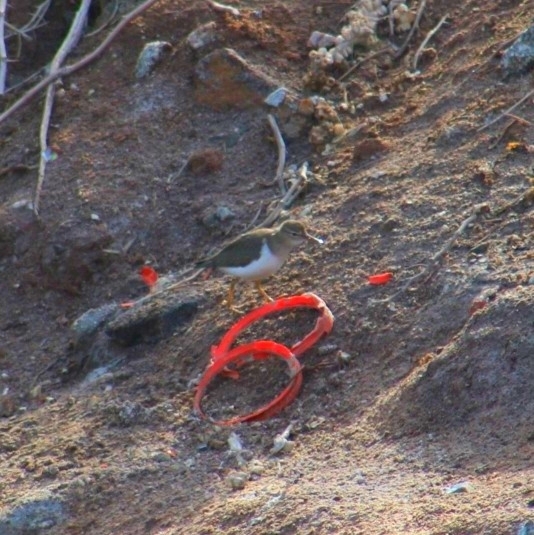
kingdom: Animalia
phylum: Chordata
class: Aves
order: Charadriiformes
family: Scolopacidae
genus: Actitis
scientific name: Actitis macularius
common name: Spotted sandpiper
